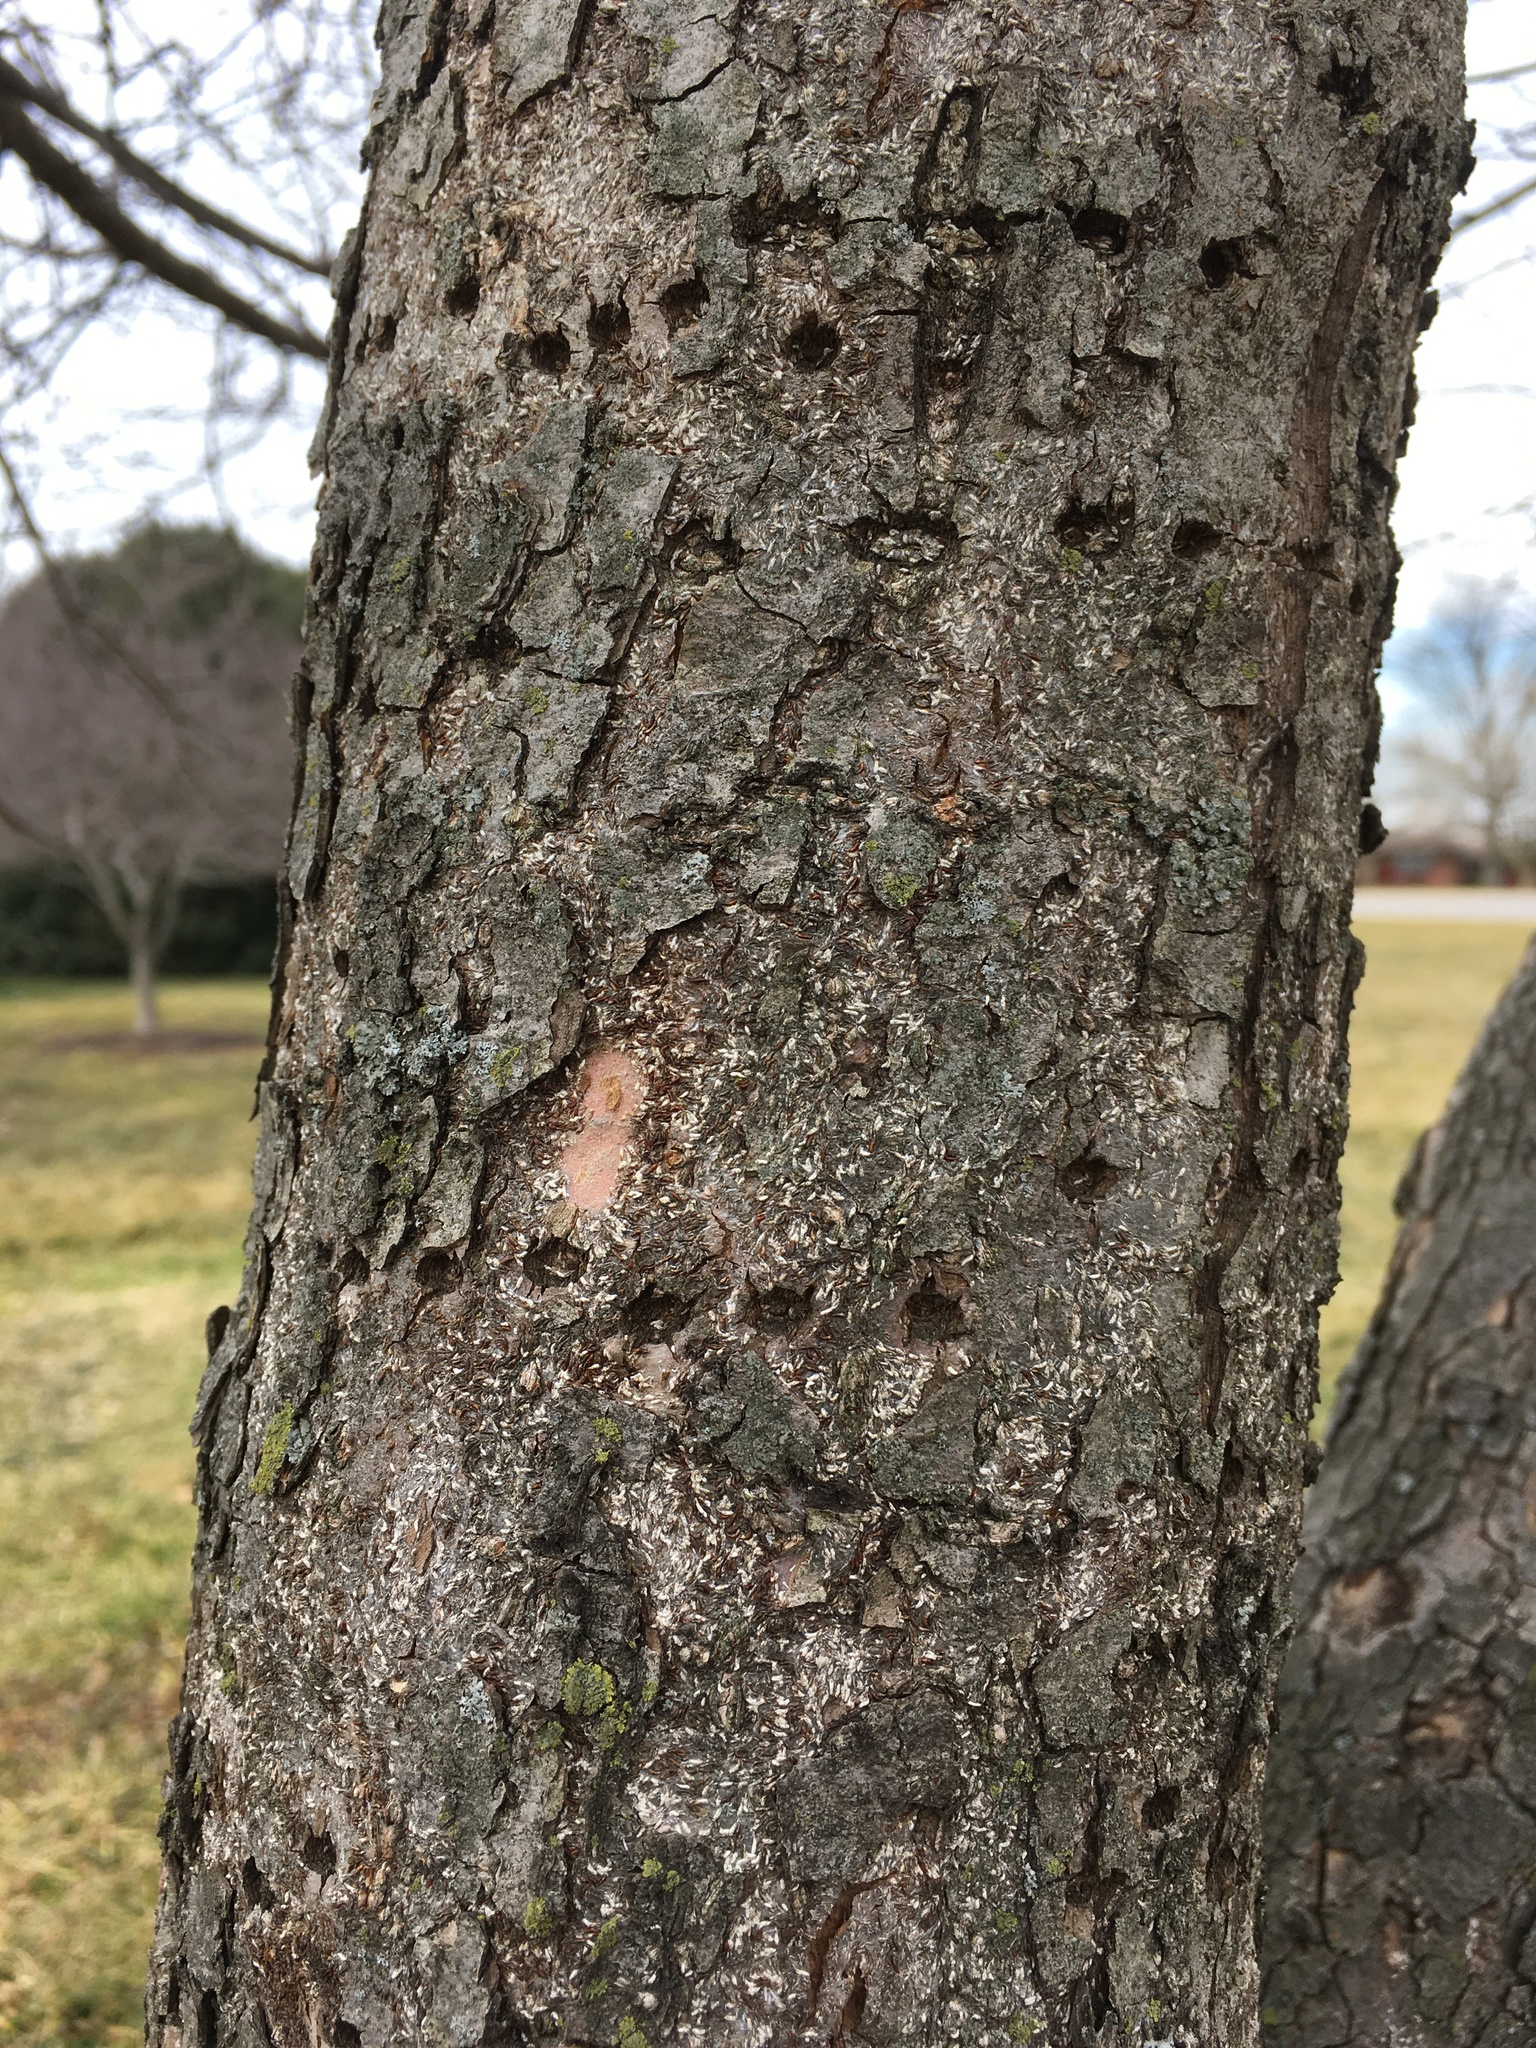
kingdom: Animalia
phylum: Chordata
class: Aves
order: Piciformes
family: Picidae
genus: Sphyrapicus
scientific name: Sphyrapicus varius
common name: Yellow-bellied sapsucker
